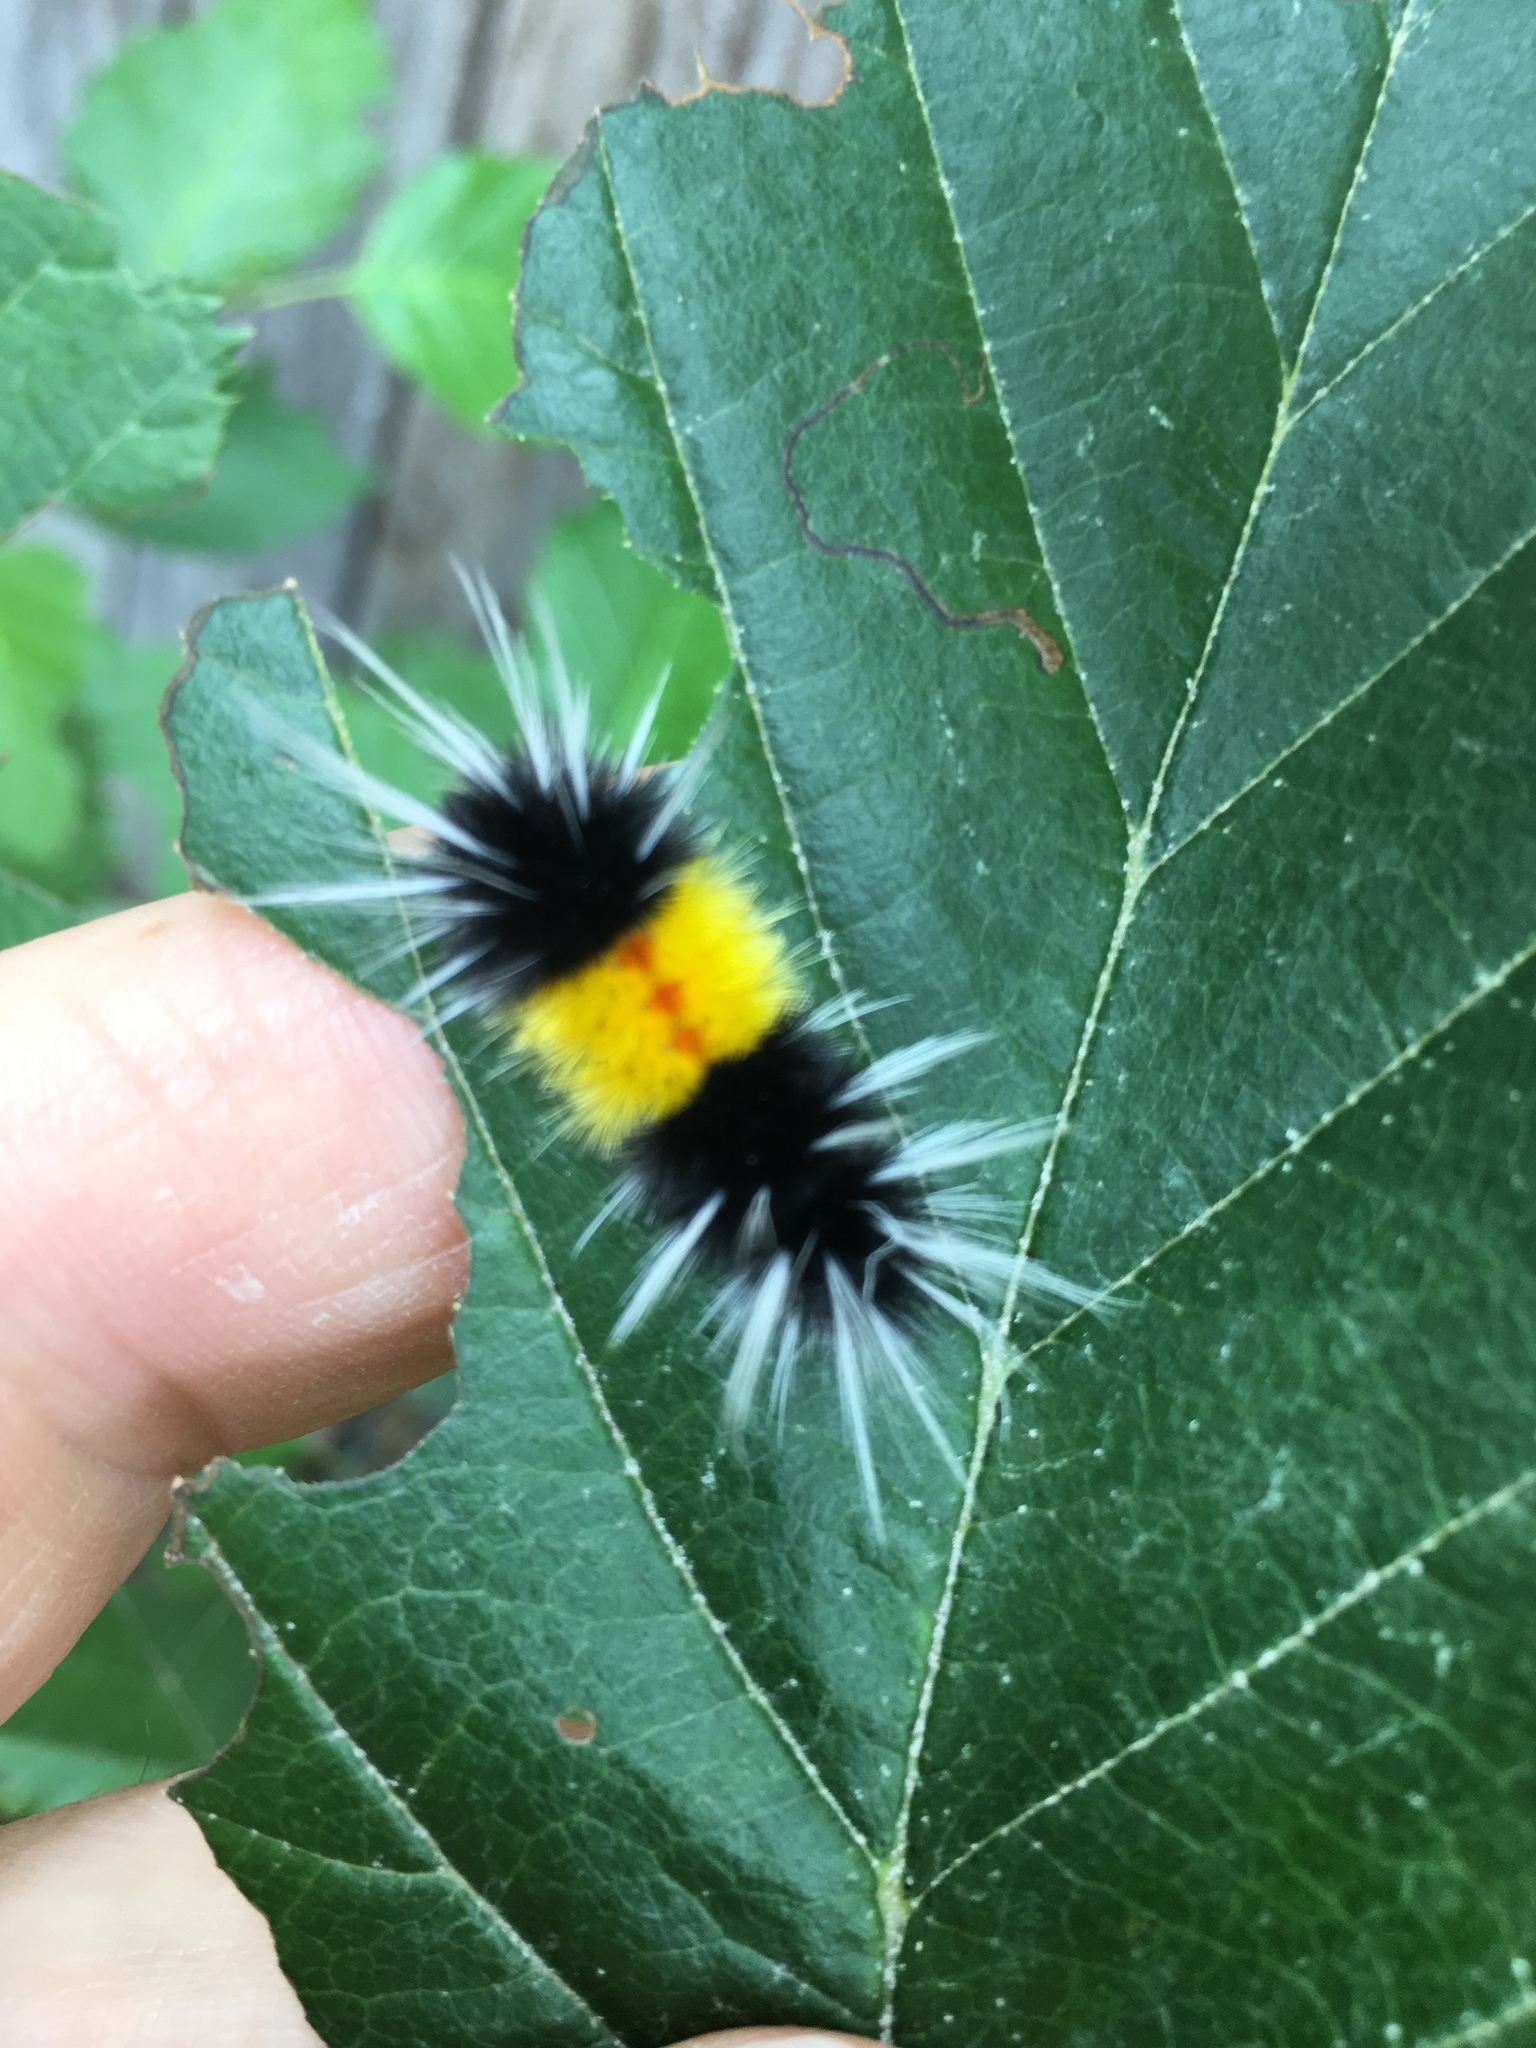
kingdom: Animalia
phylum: Arthropoda
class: Insecta
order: Lepidoptera
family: Erebidae
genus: Lophocampa
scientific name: Lophocampa maculata
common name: Spotted tussock moth
